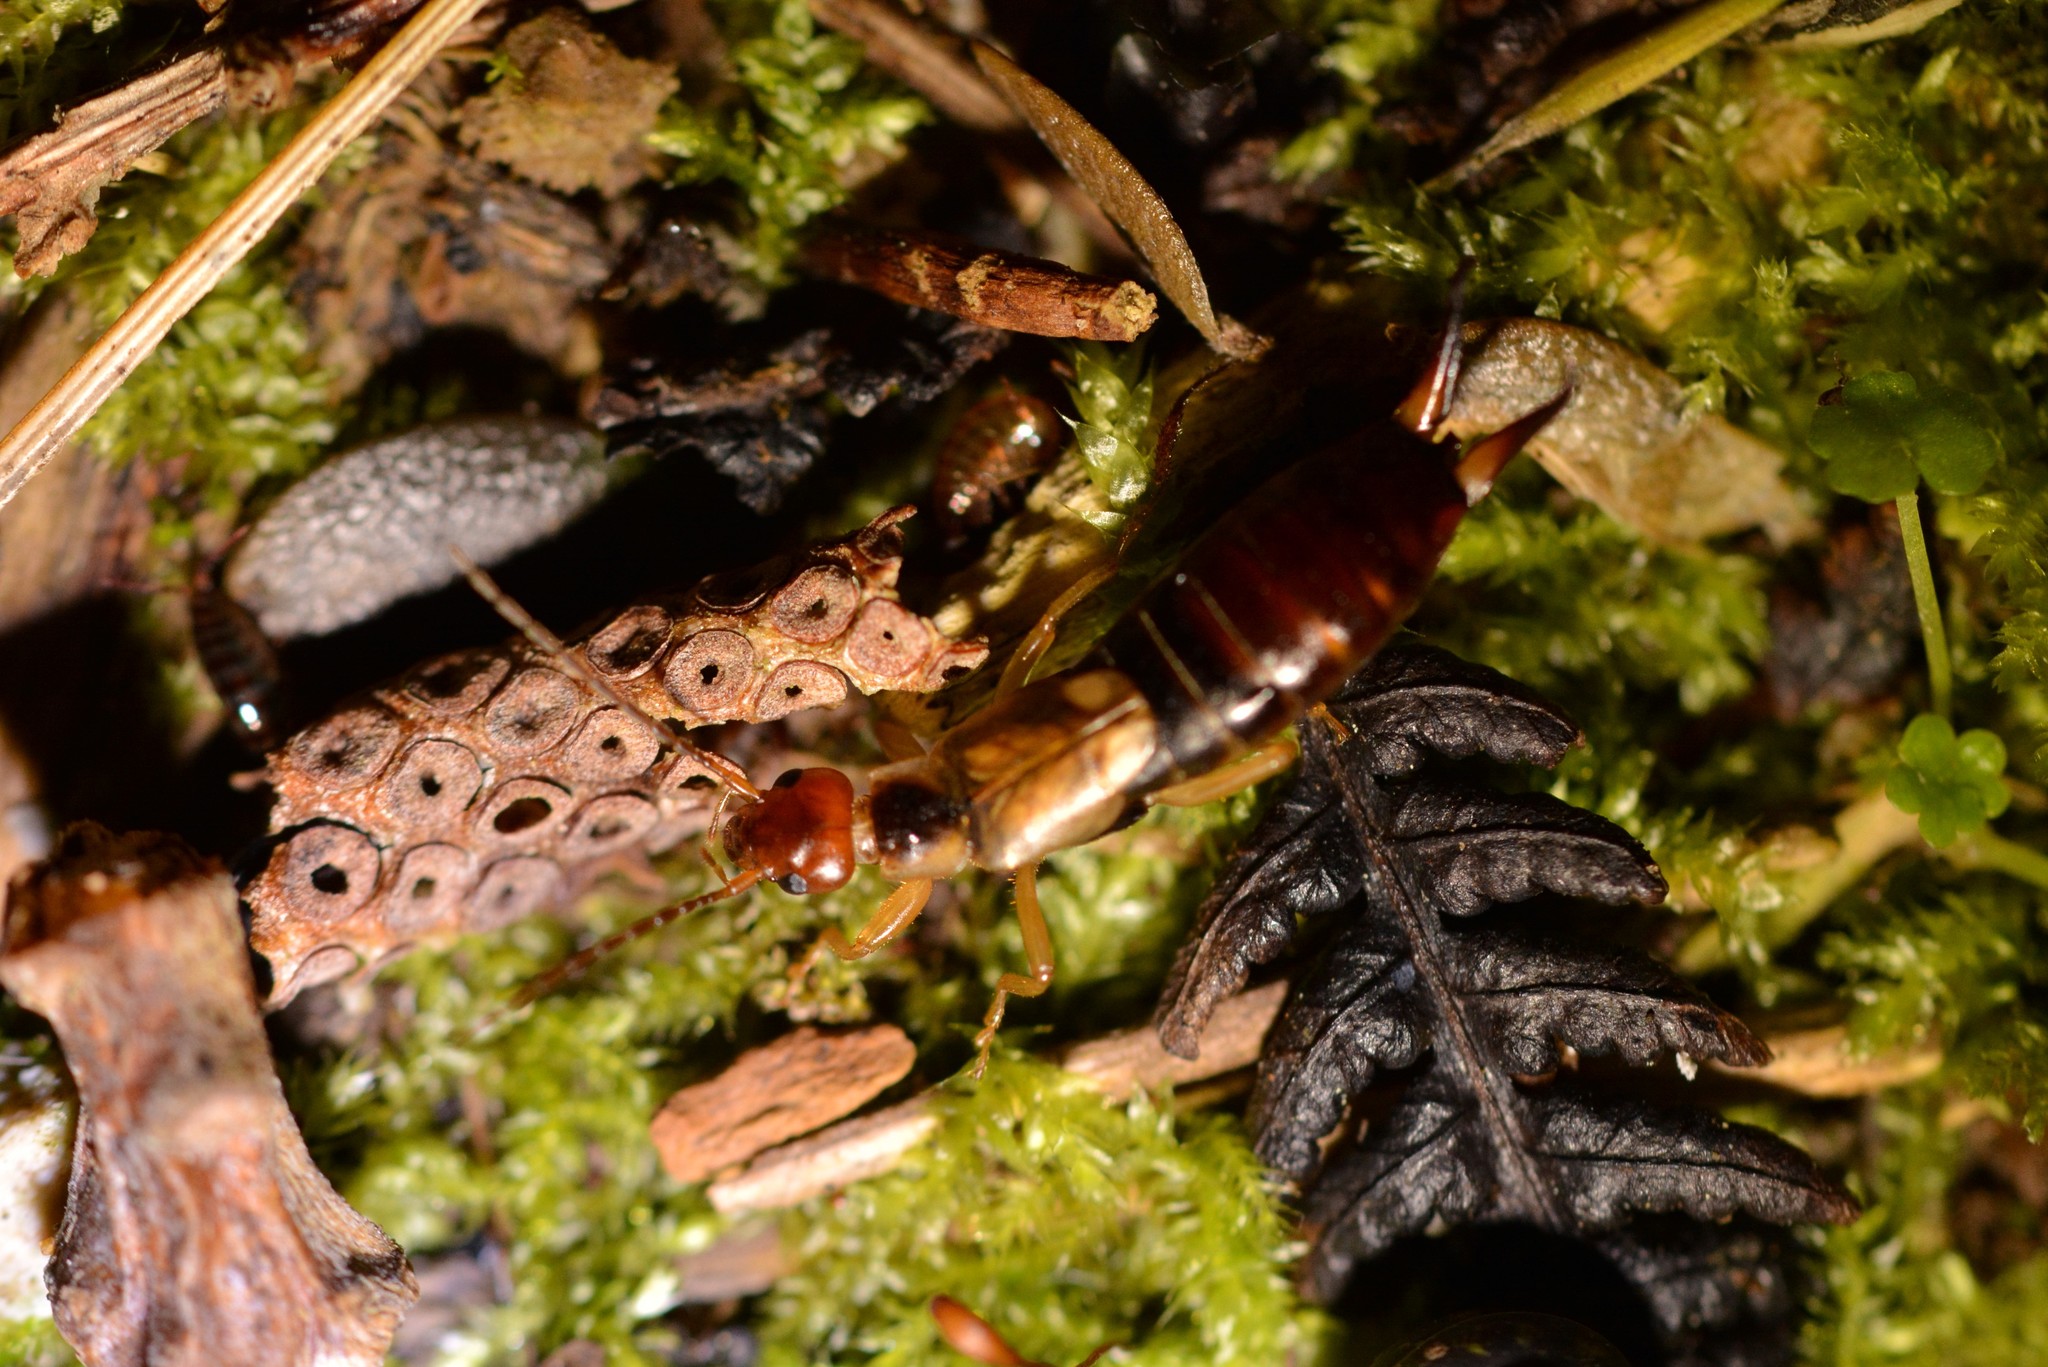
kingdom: Animalia
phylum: Arthropoda
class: Insecta
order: Dermaptera
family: Forficulidae
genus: Forficula
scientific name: Forficula
